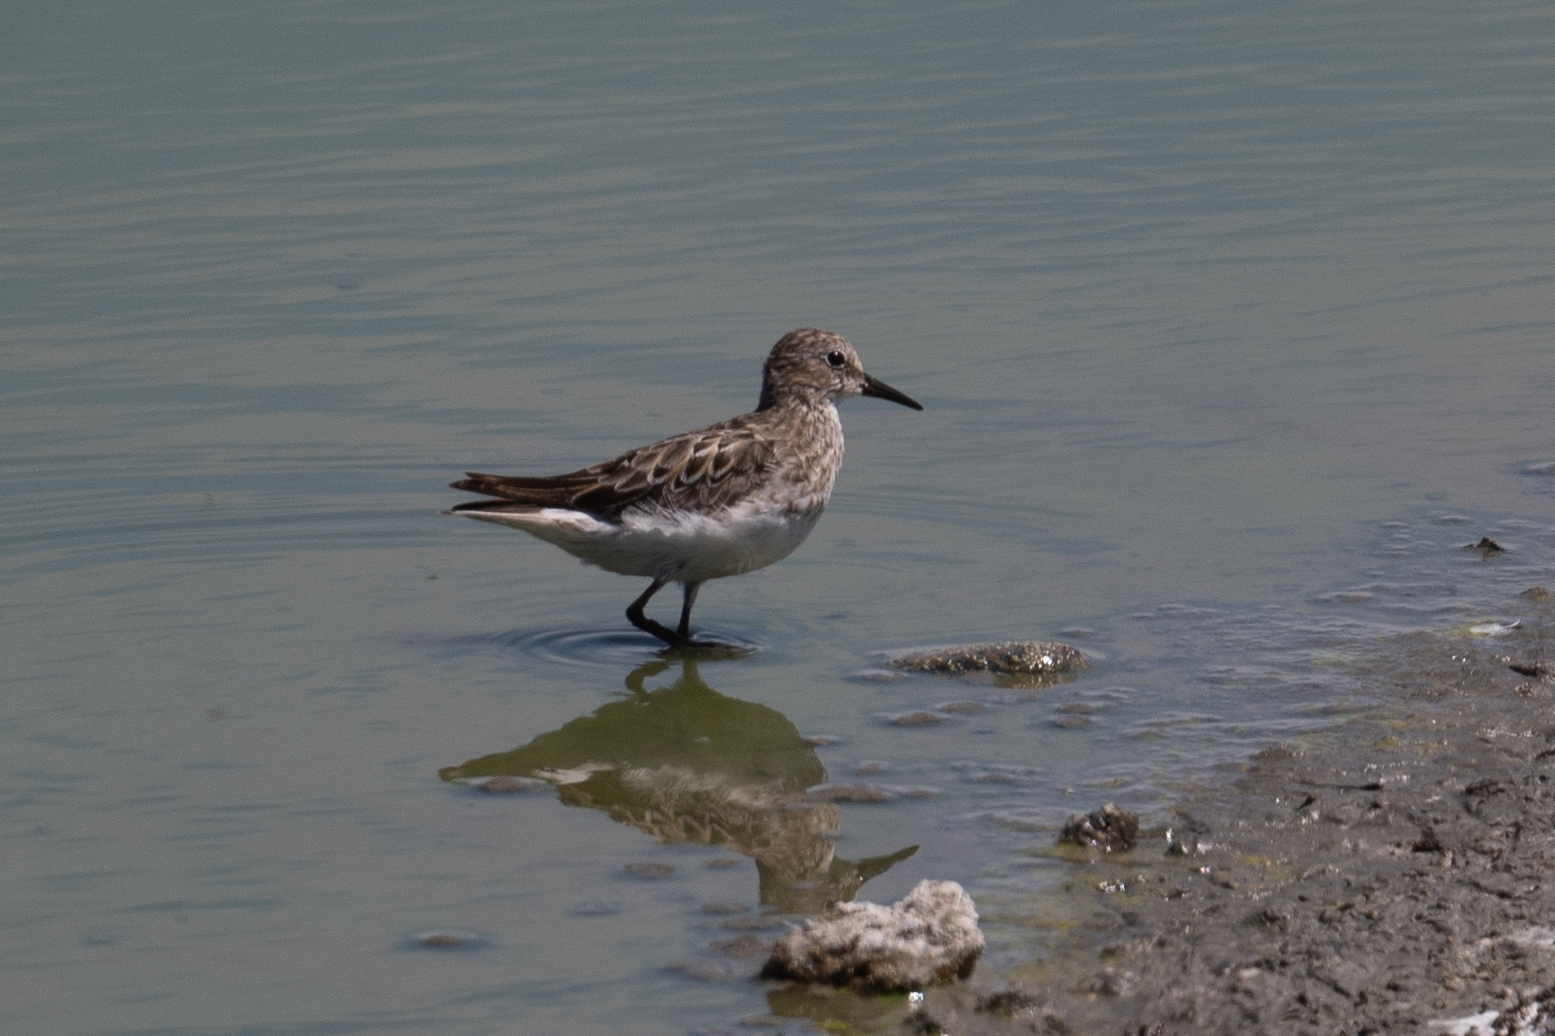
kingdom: Animalia
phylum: Chordata
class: Aves
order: Charadriiformes
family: Scolopacidae
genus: Calidris
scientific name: Calidris minutilla
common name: Least sandpiper
